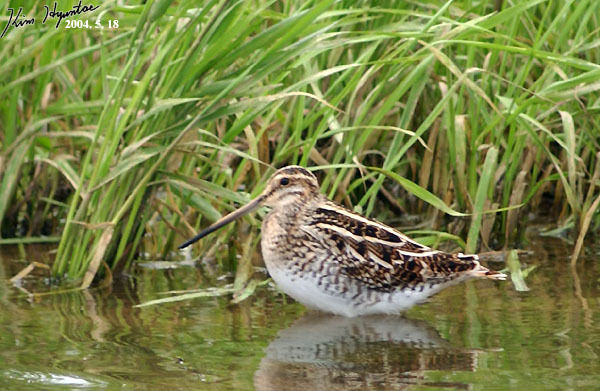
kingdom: Animalia
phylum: Chordata
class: Aves
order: Charadriiformes
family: Scolopacidae
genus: Gallinago
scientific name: Gallinago gallinago
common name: Common snipe
